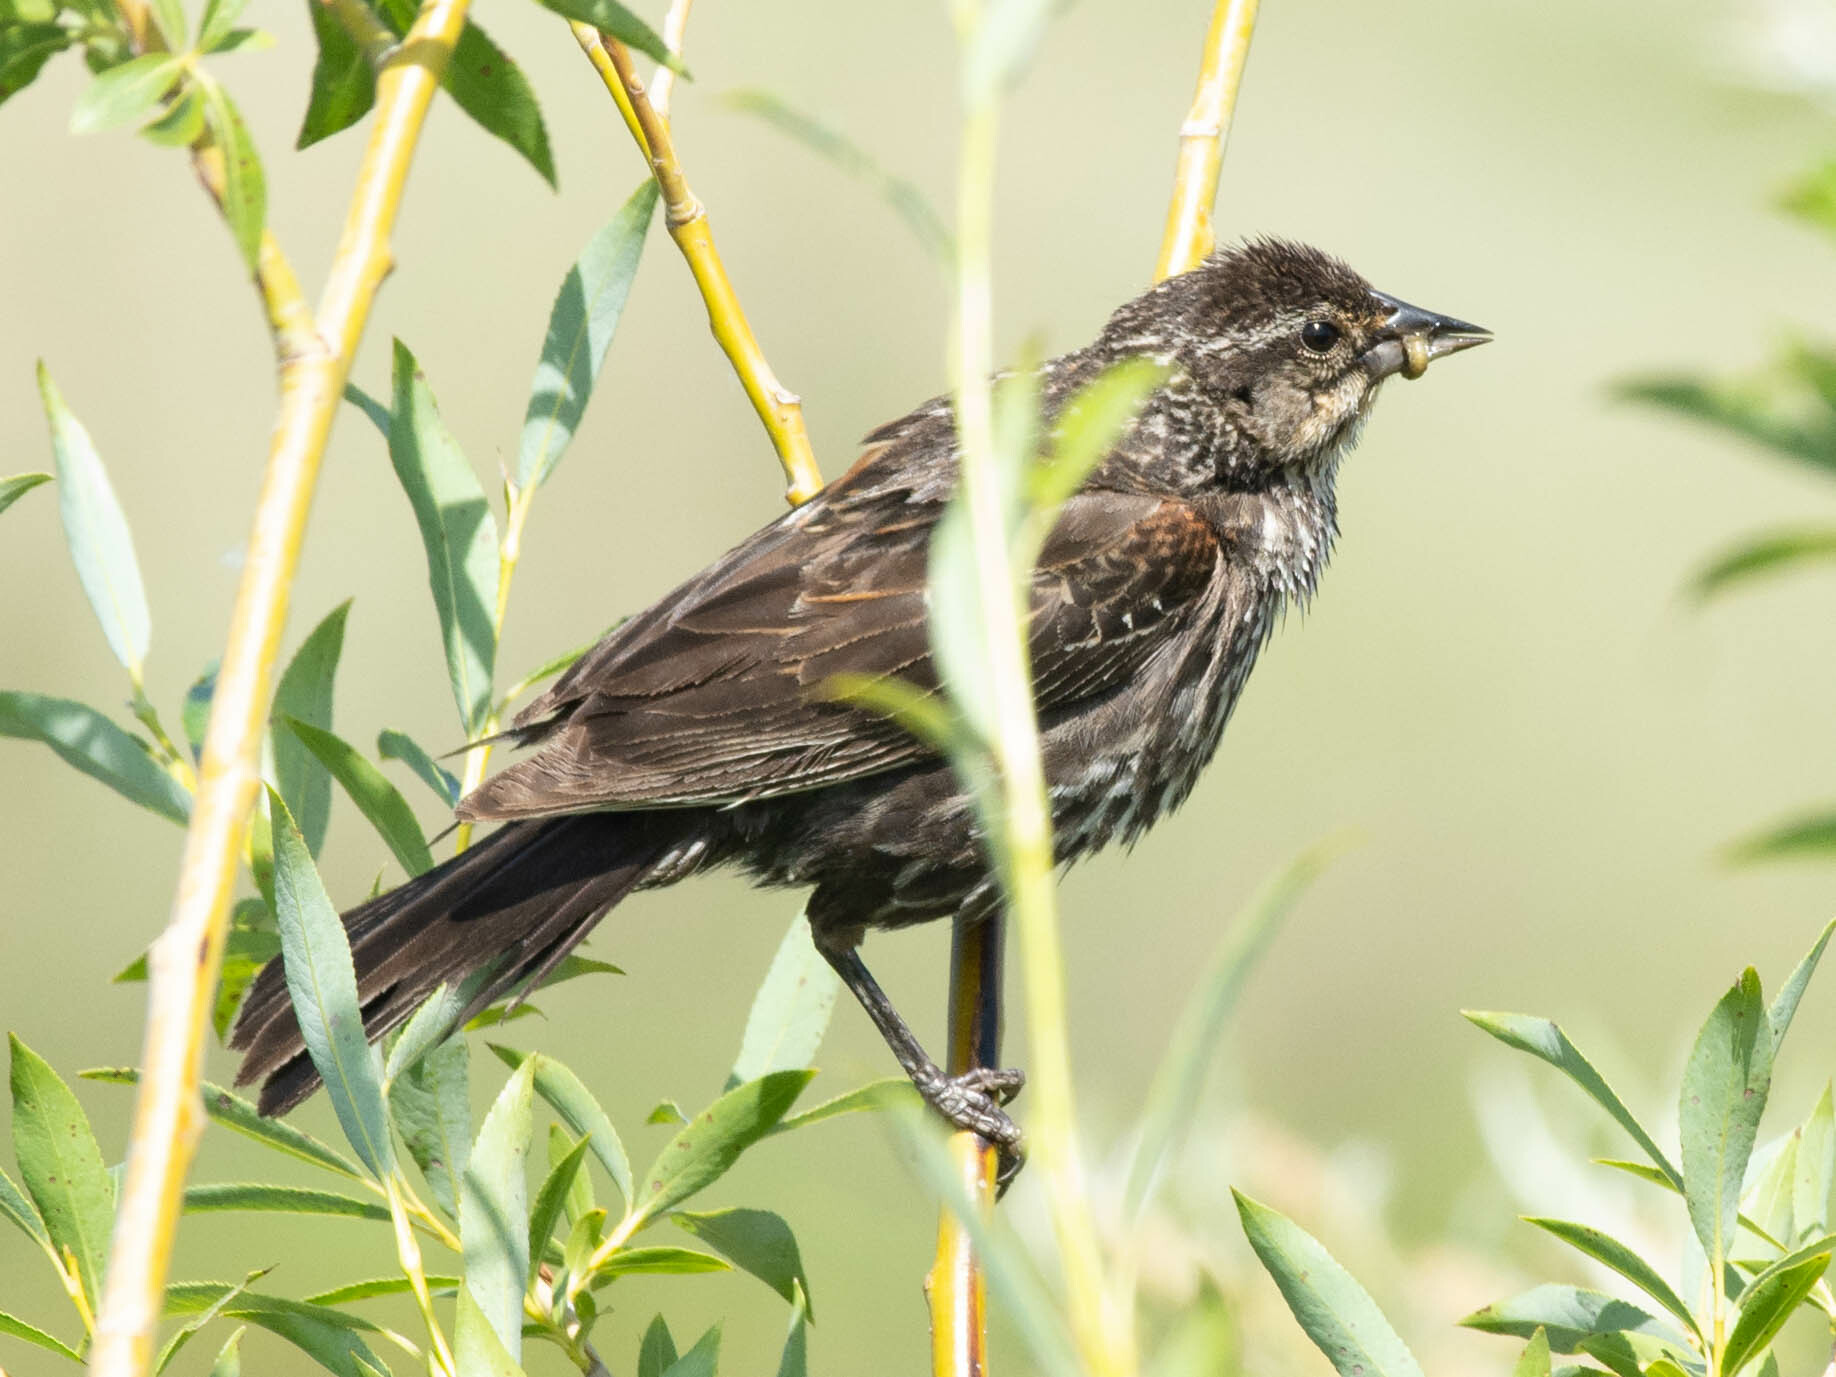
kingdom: Animalia
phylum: Chordata
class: Aves
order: Passeriformes
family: Icteridae
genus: Agelaius
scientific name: Agelaius phoeniceus
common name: Red-winged blackbird
